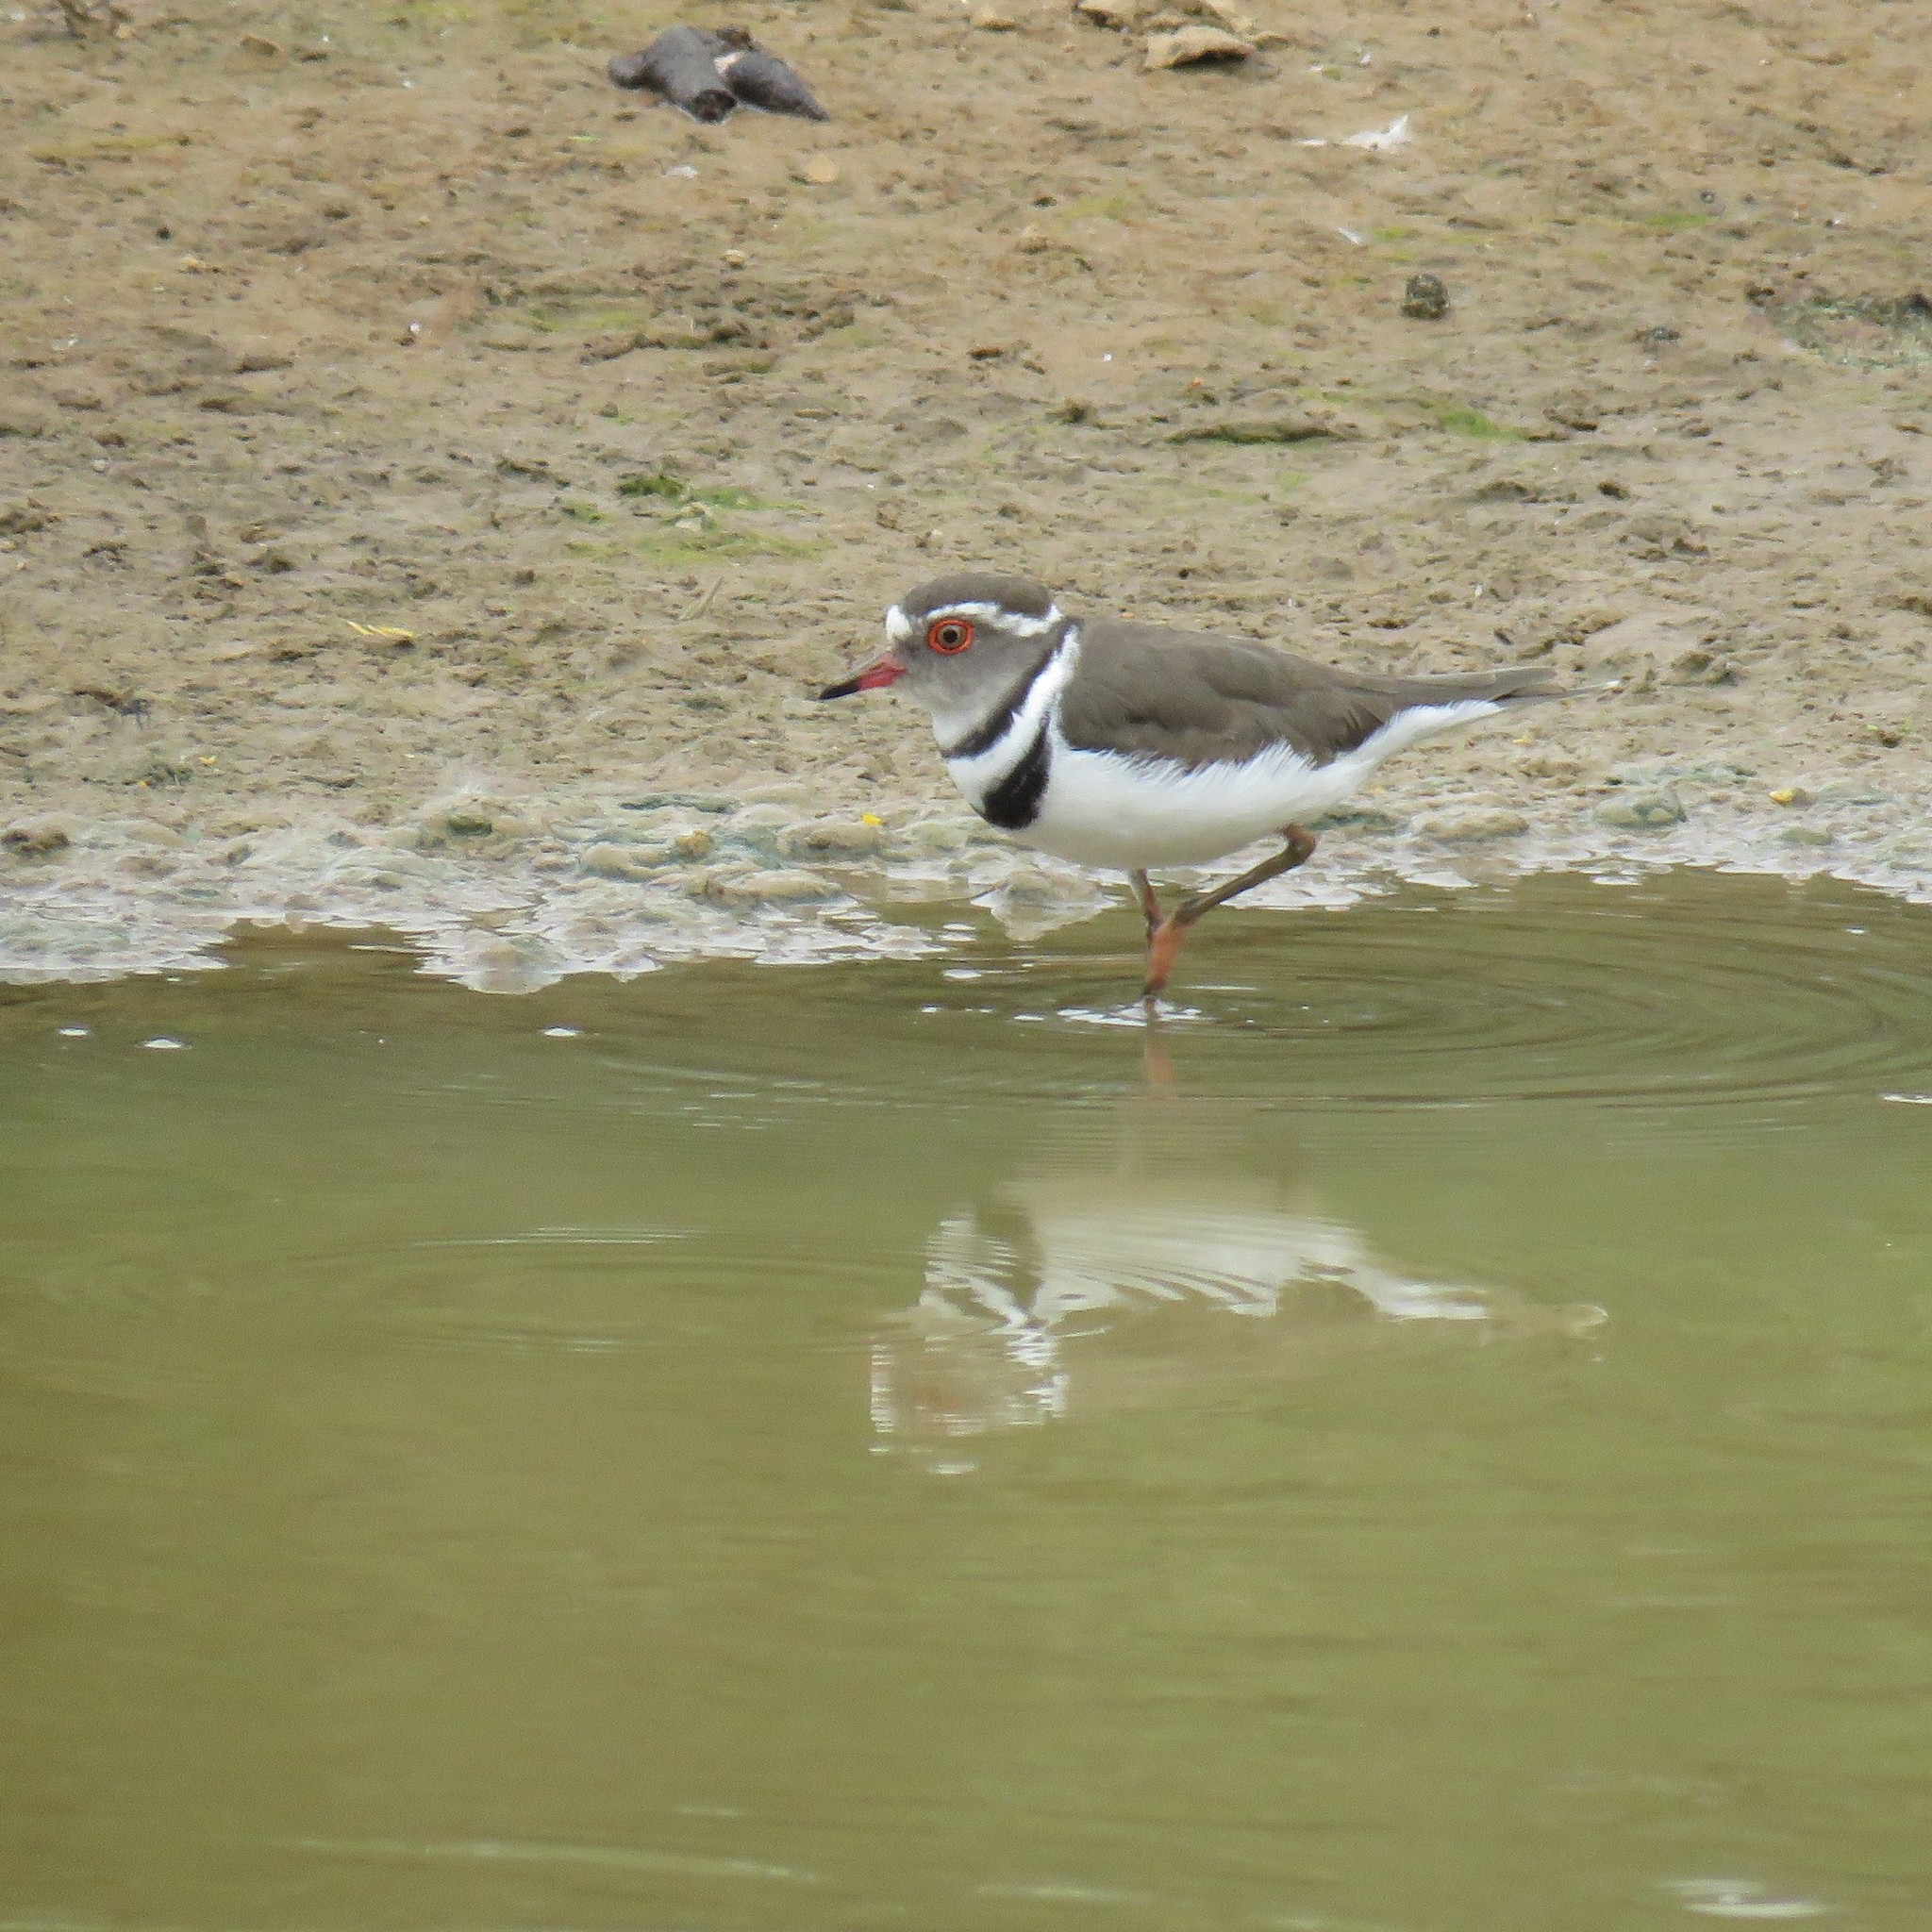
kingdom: Animalia
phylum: Chordata
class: Aves
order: Charadriiformes
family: Charadriidae
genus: Charadrius
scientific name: Charadrius tricollaris
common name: Three-banded plover
